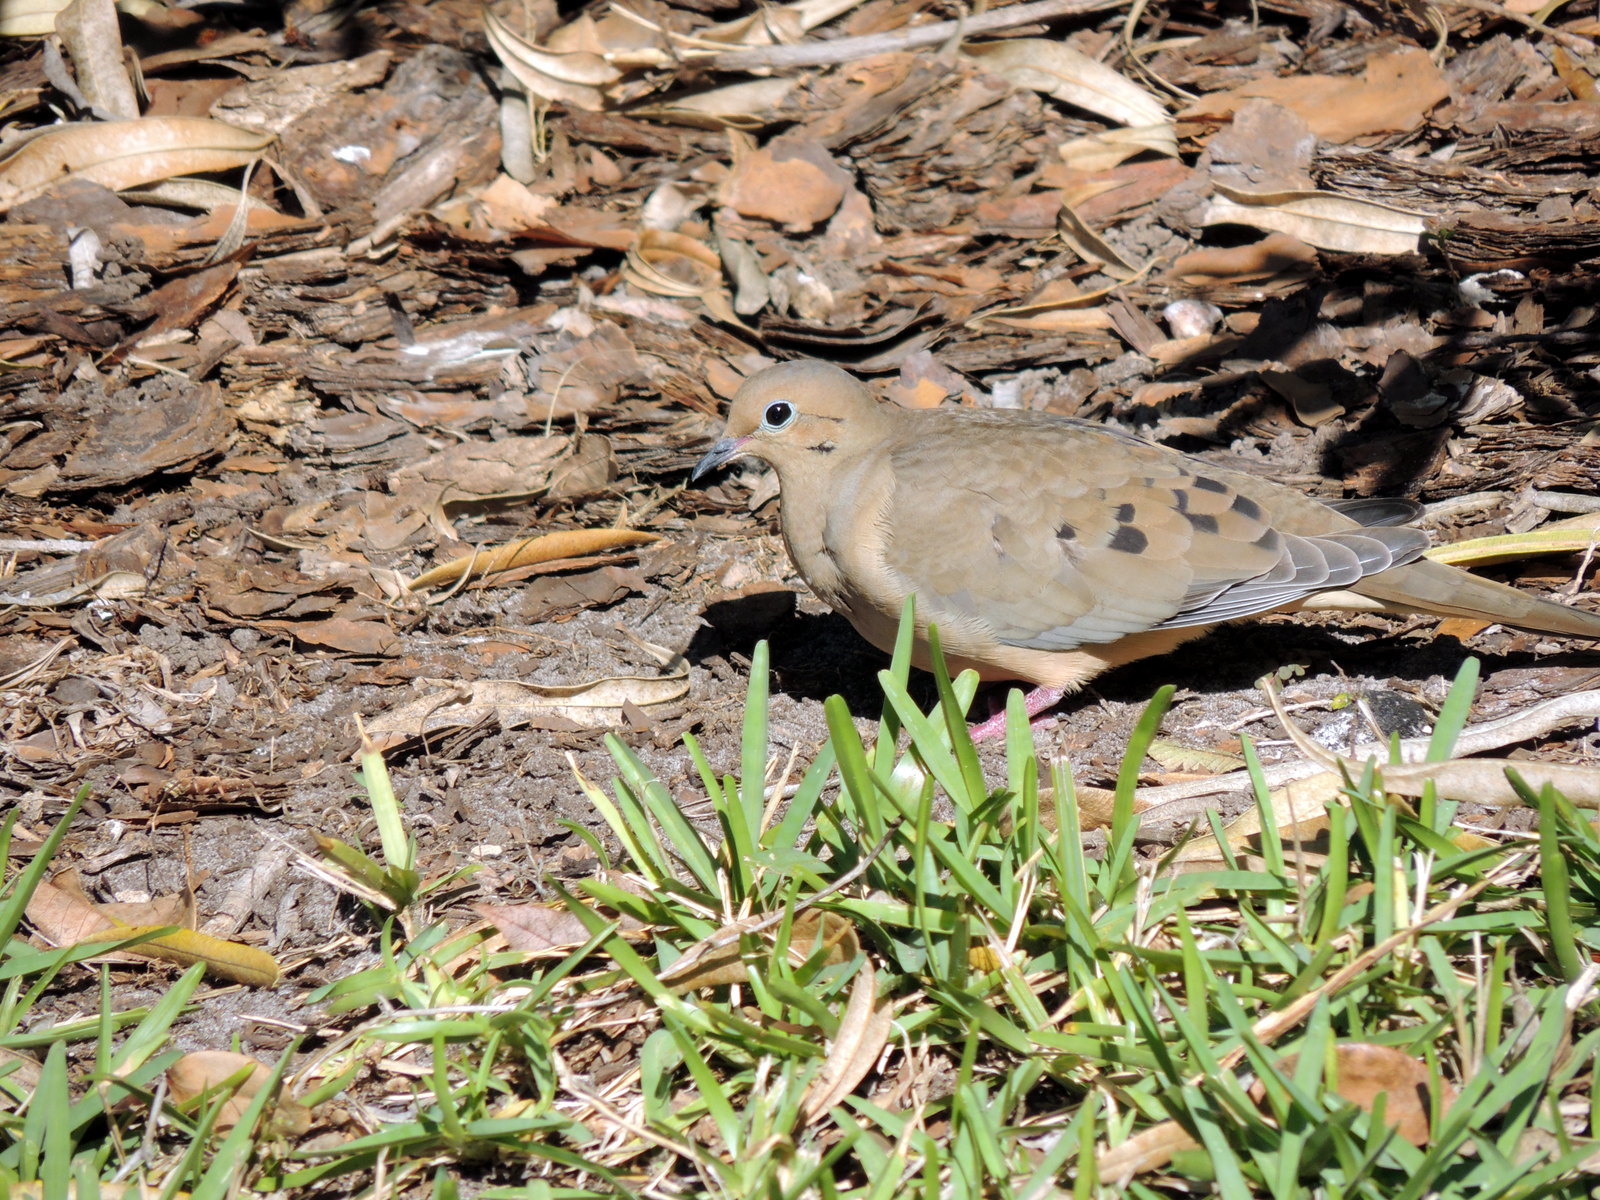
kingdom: Animalia
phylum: Chordata
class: Aves
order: Columbiformes
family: Columbidae
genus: Zenaida
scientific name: Zenaida macroura
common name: Mourning dove
